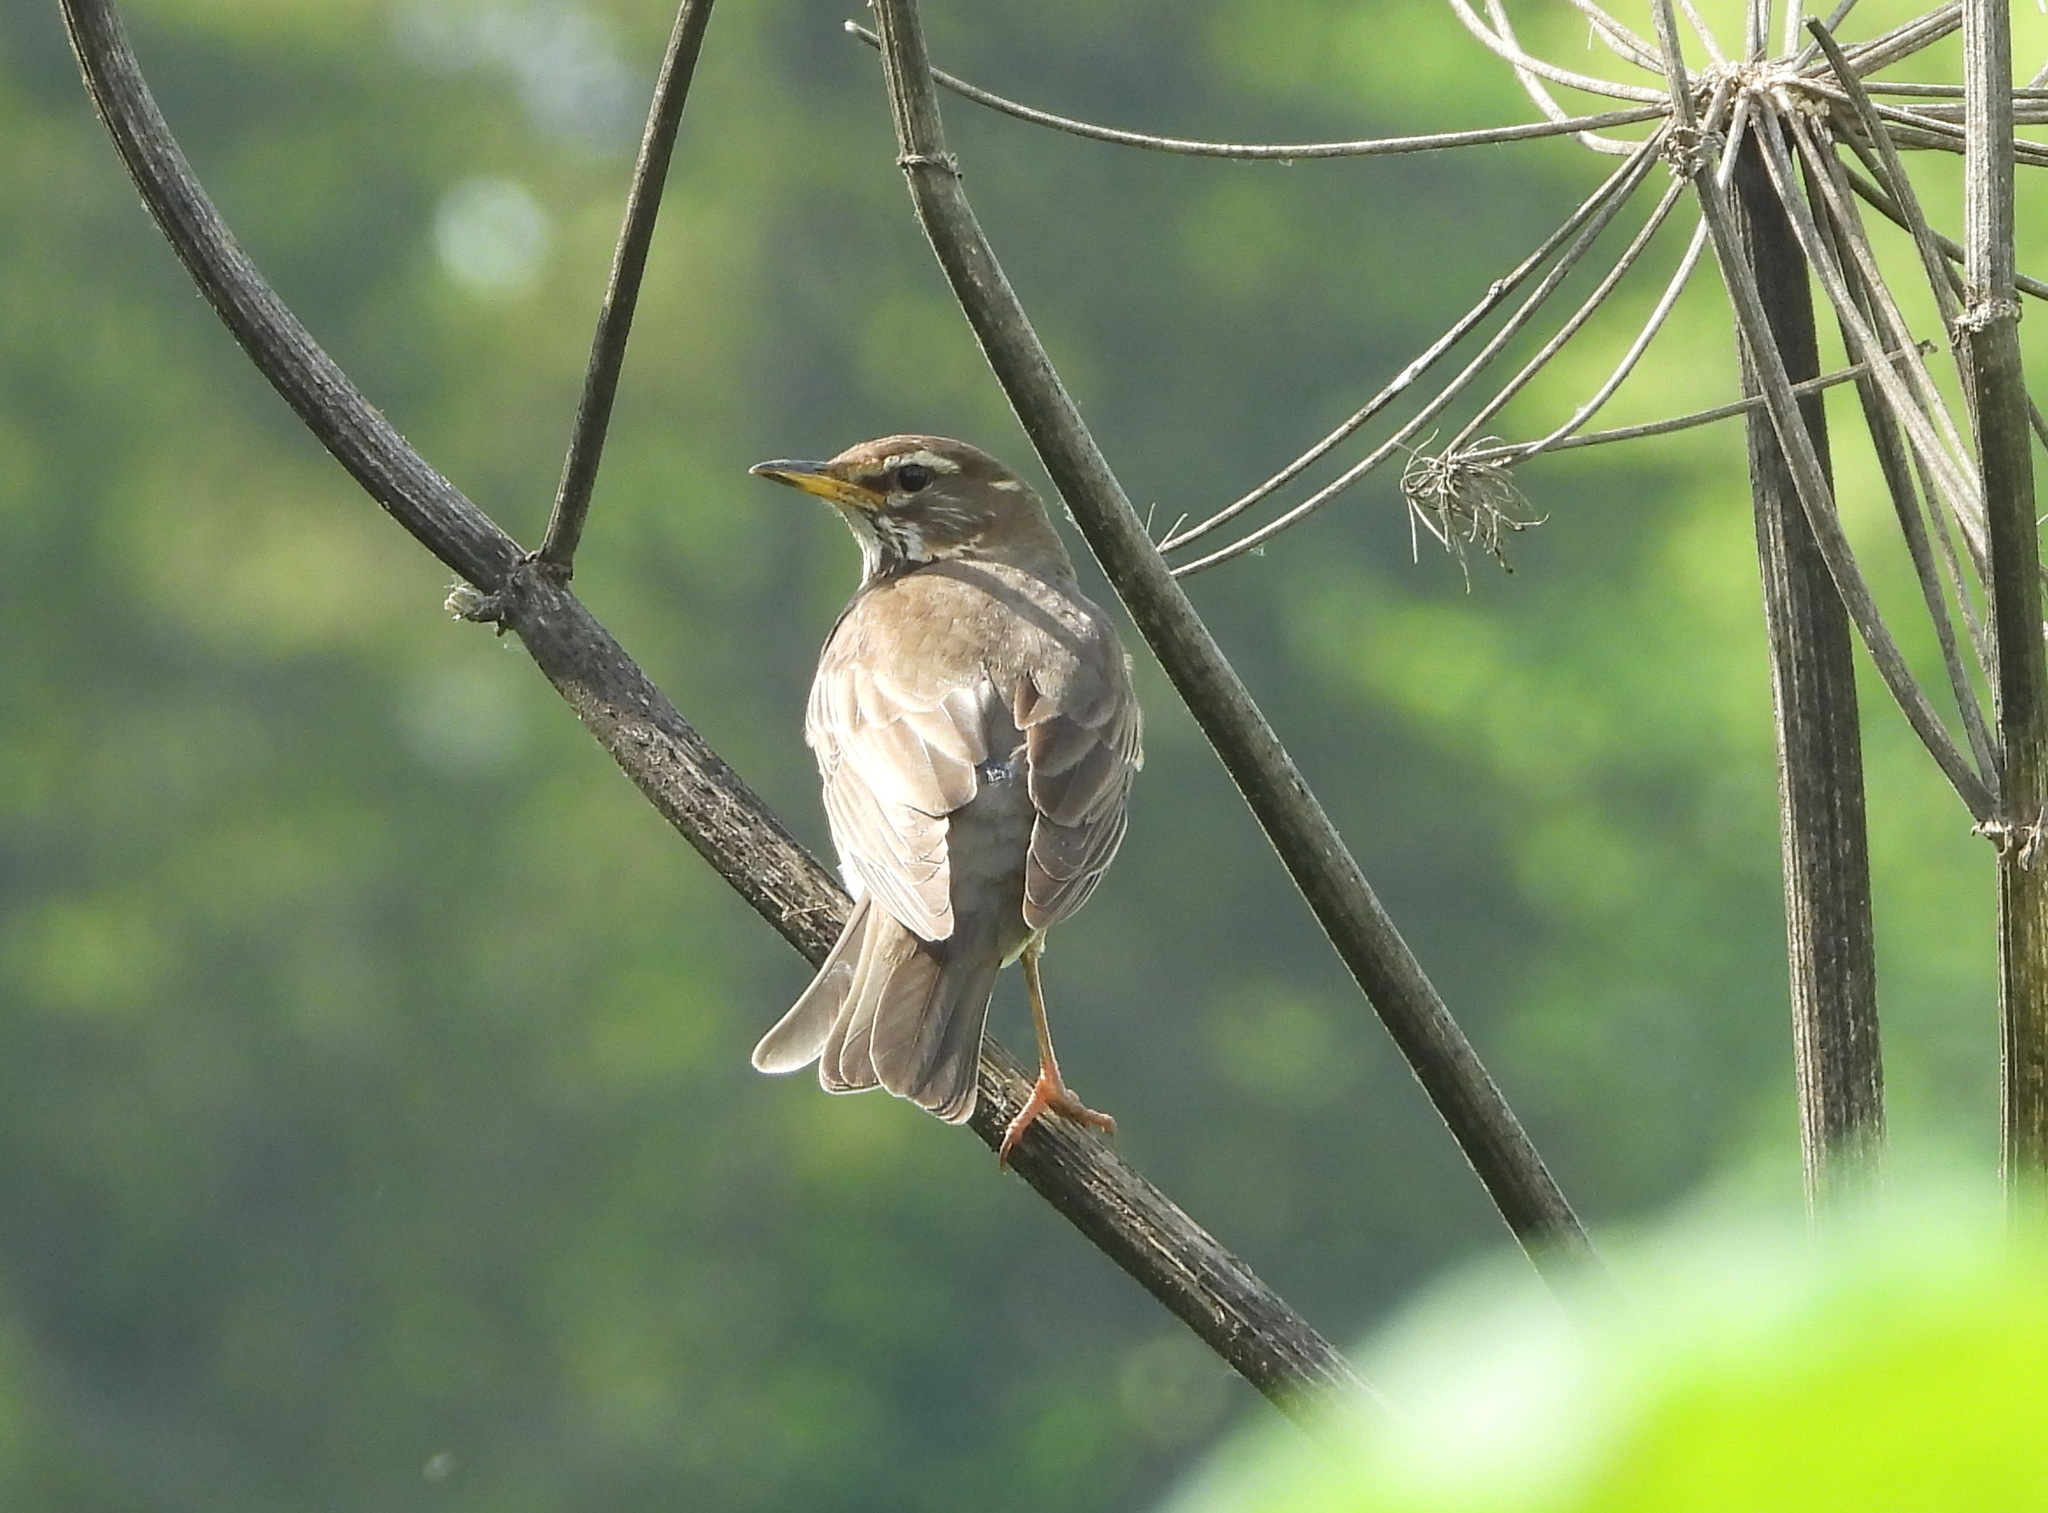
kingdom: Animalia
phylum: Chordata
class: Aves
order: Passeriformes
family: Turdidae
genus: Turdus
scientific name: Turdus iliacus
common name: Redwing
